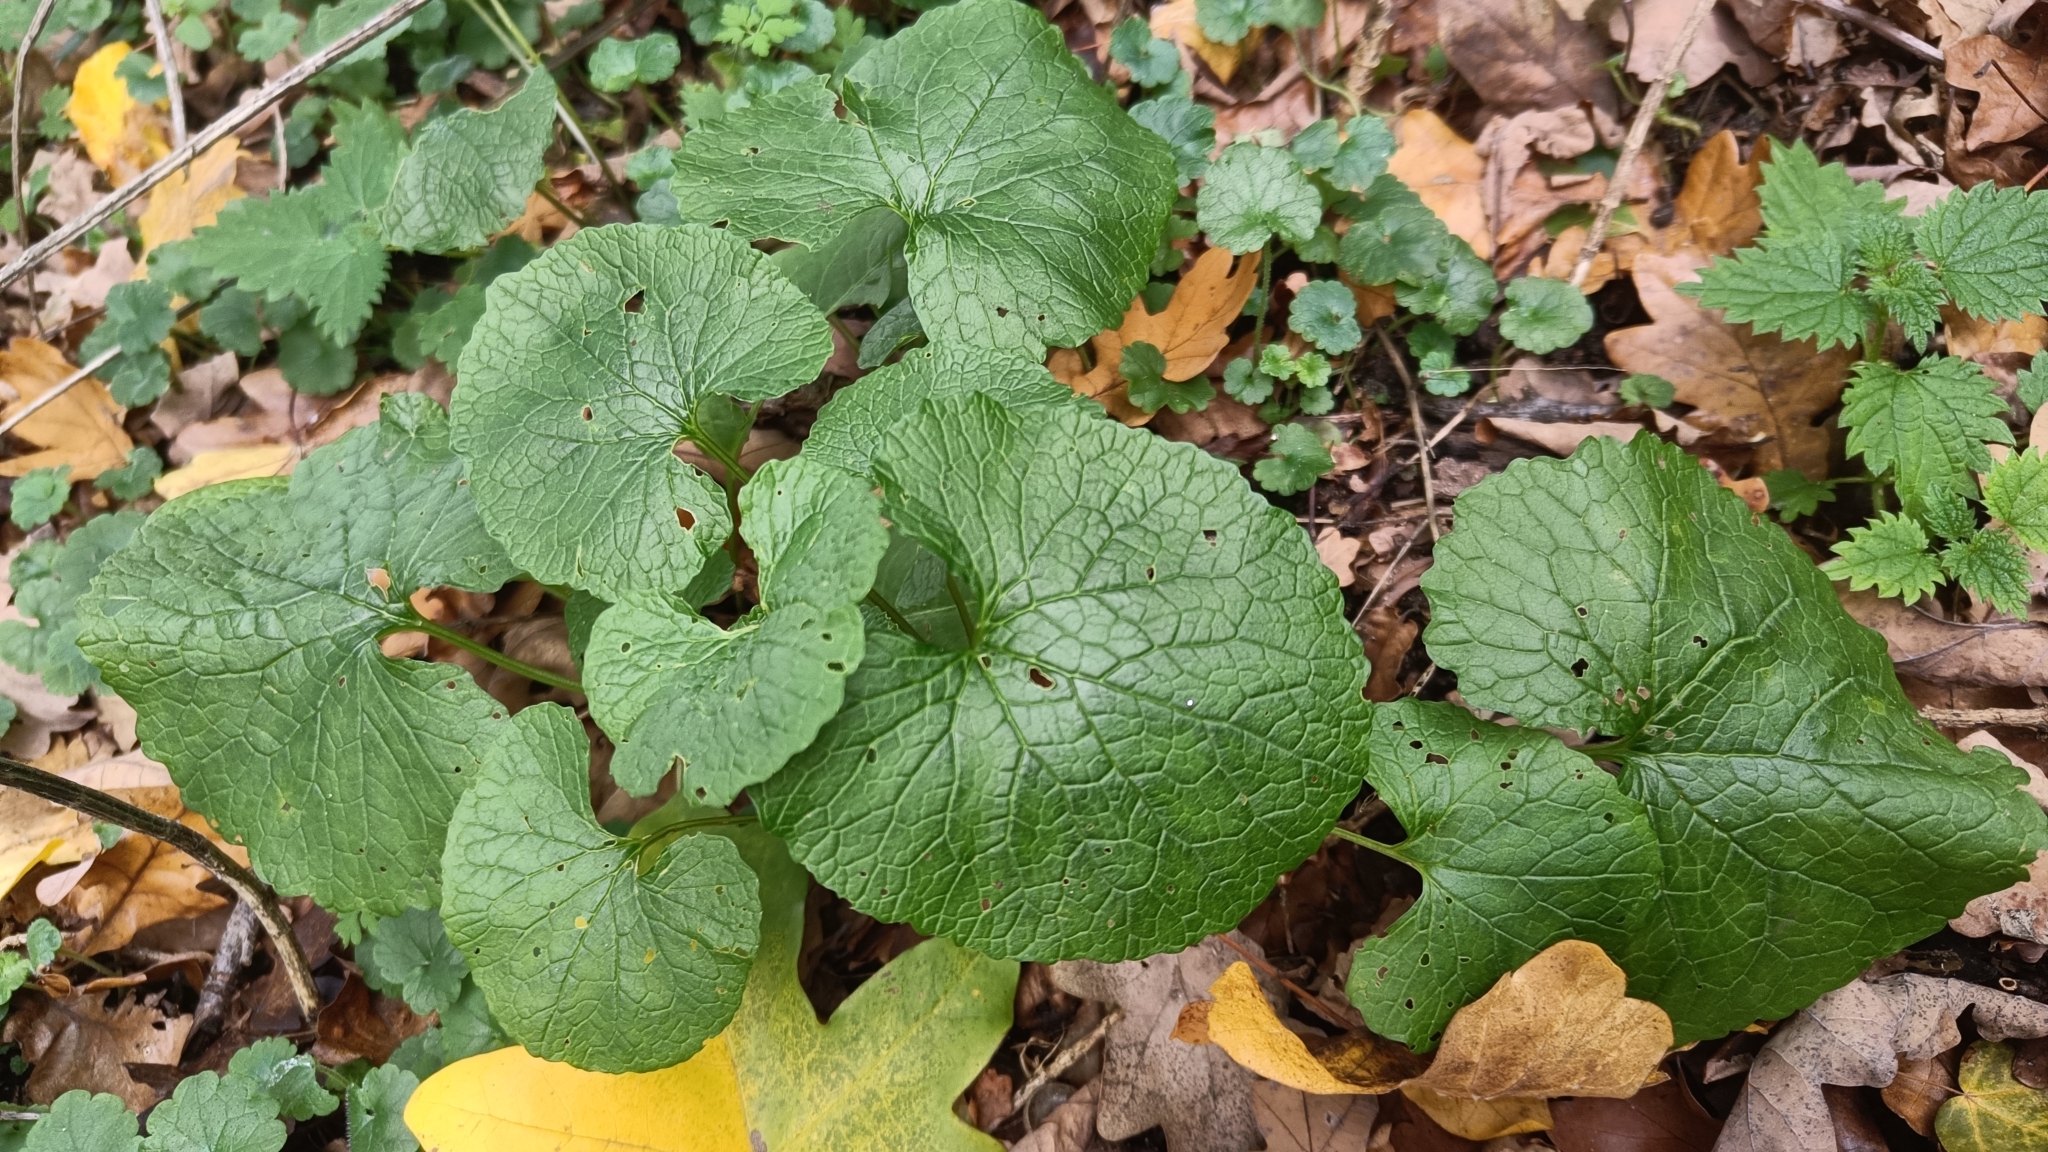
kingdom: Plantae
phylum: Tracheophyta
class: Magnoliopsida
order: Brassicales
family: Brassicaceae
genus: Alliaria
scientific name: Alliaria petiolata
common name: Garlic mustard
